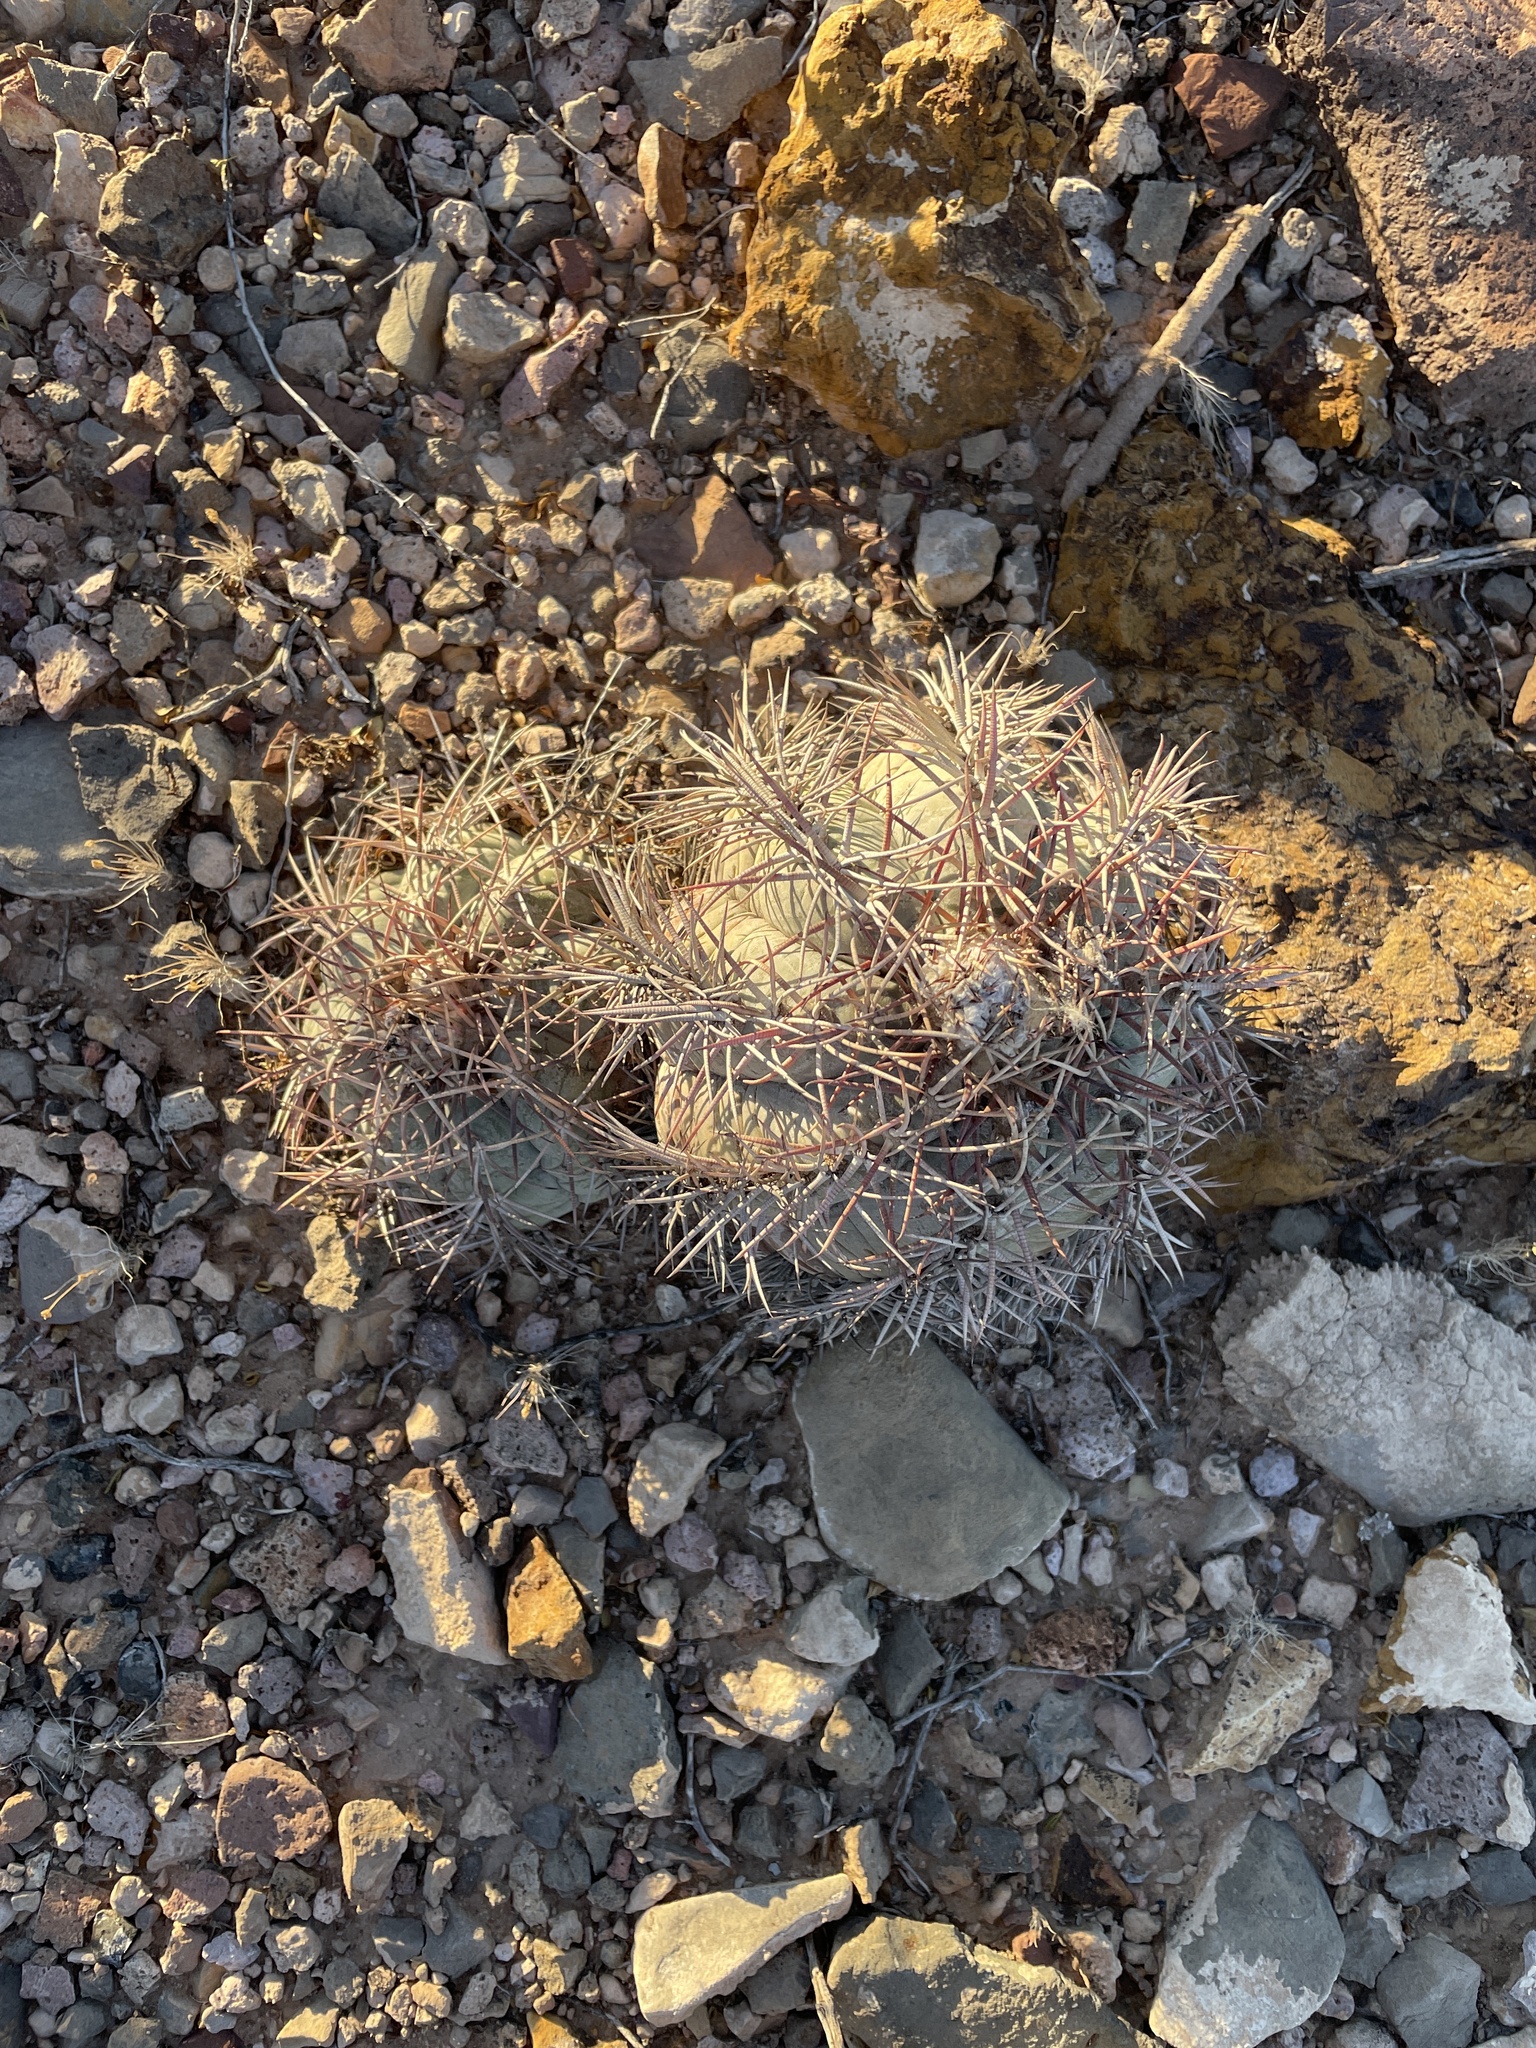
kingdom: Plantae
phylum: Tracheophyta
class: Magnoliopsida
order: Caryophyllales
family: Cactaceae
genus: Echinocactus
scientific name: Echinocactus horizonthalonius
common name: Devilshead
